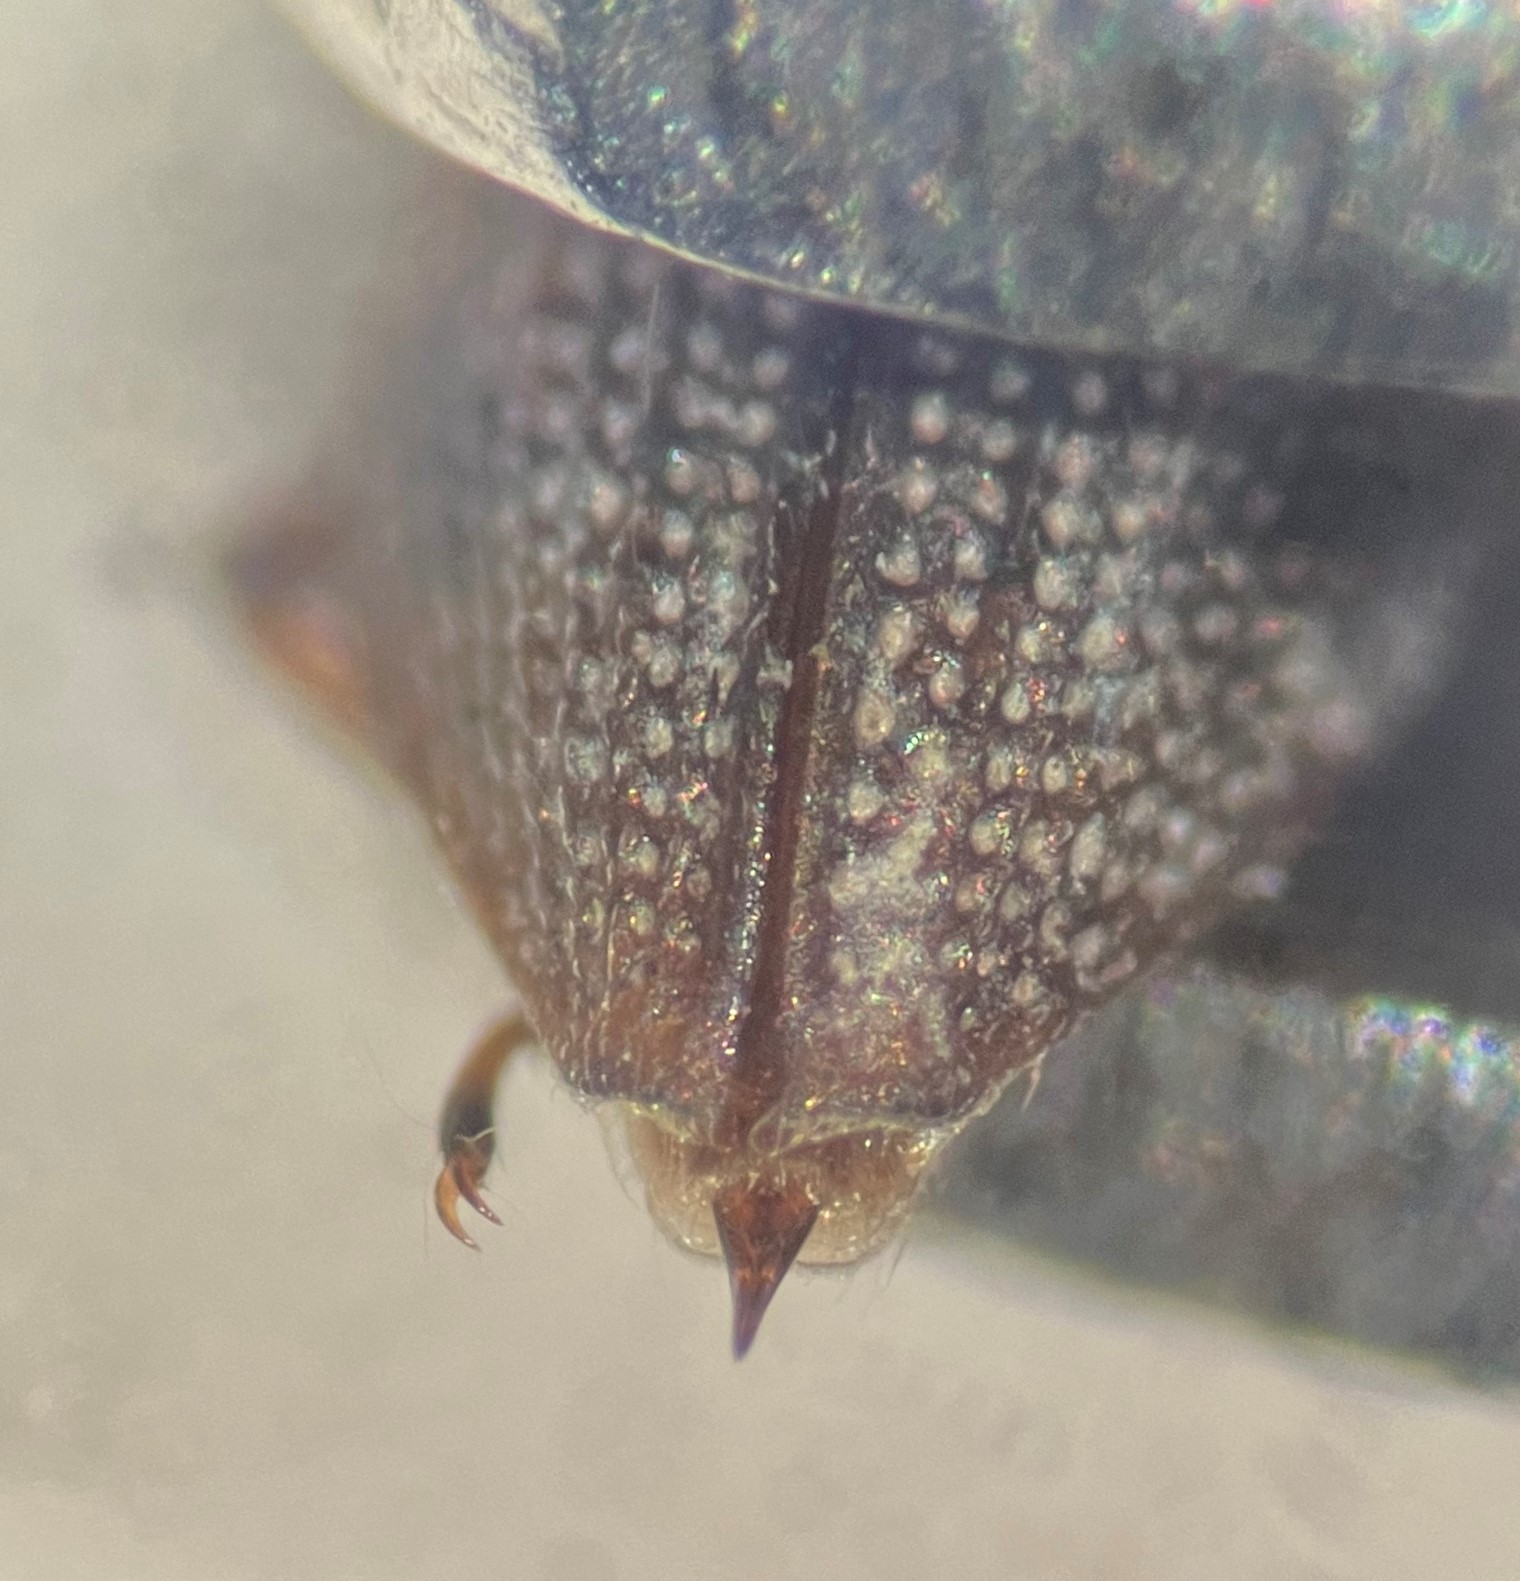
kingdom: Animalia
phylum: Arthropoda
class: Insecta
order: Coleoptera
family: Hydrochidae
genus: Hydrochus
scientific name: Hydrochus jiawanae
